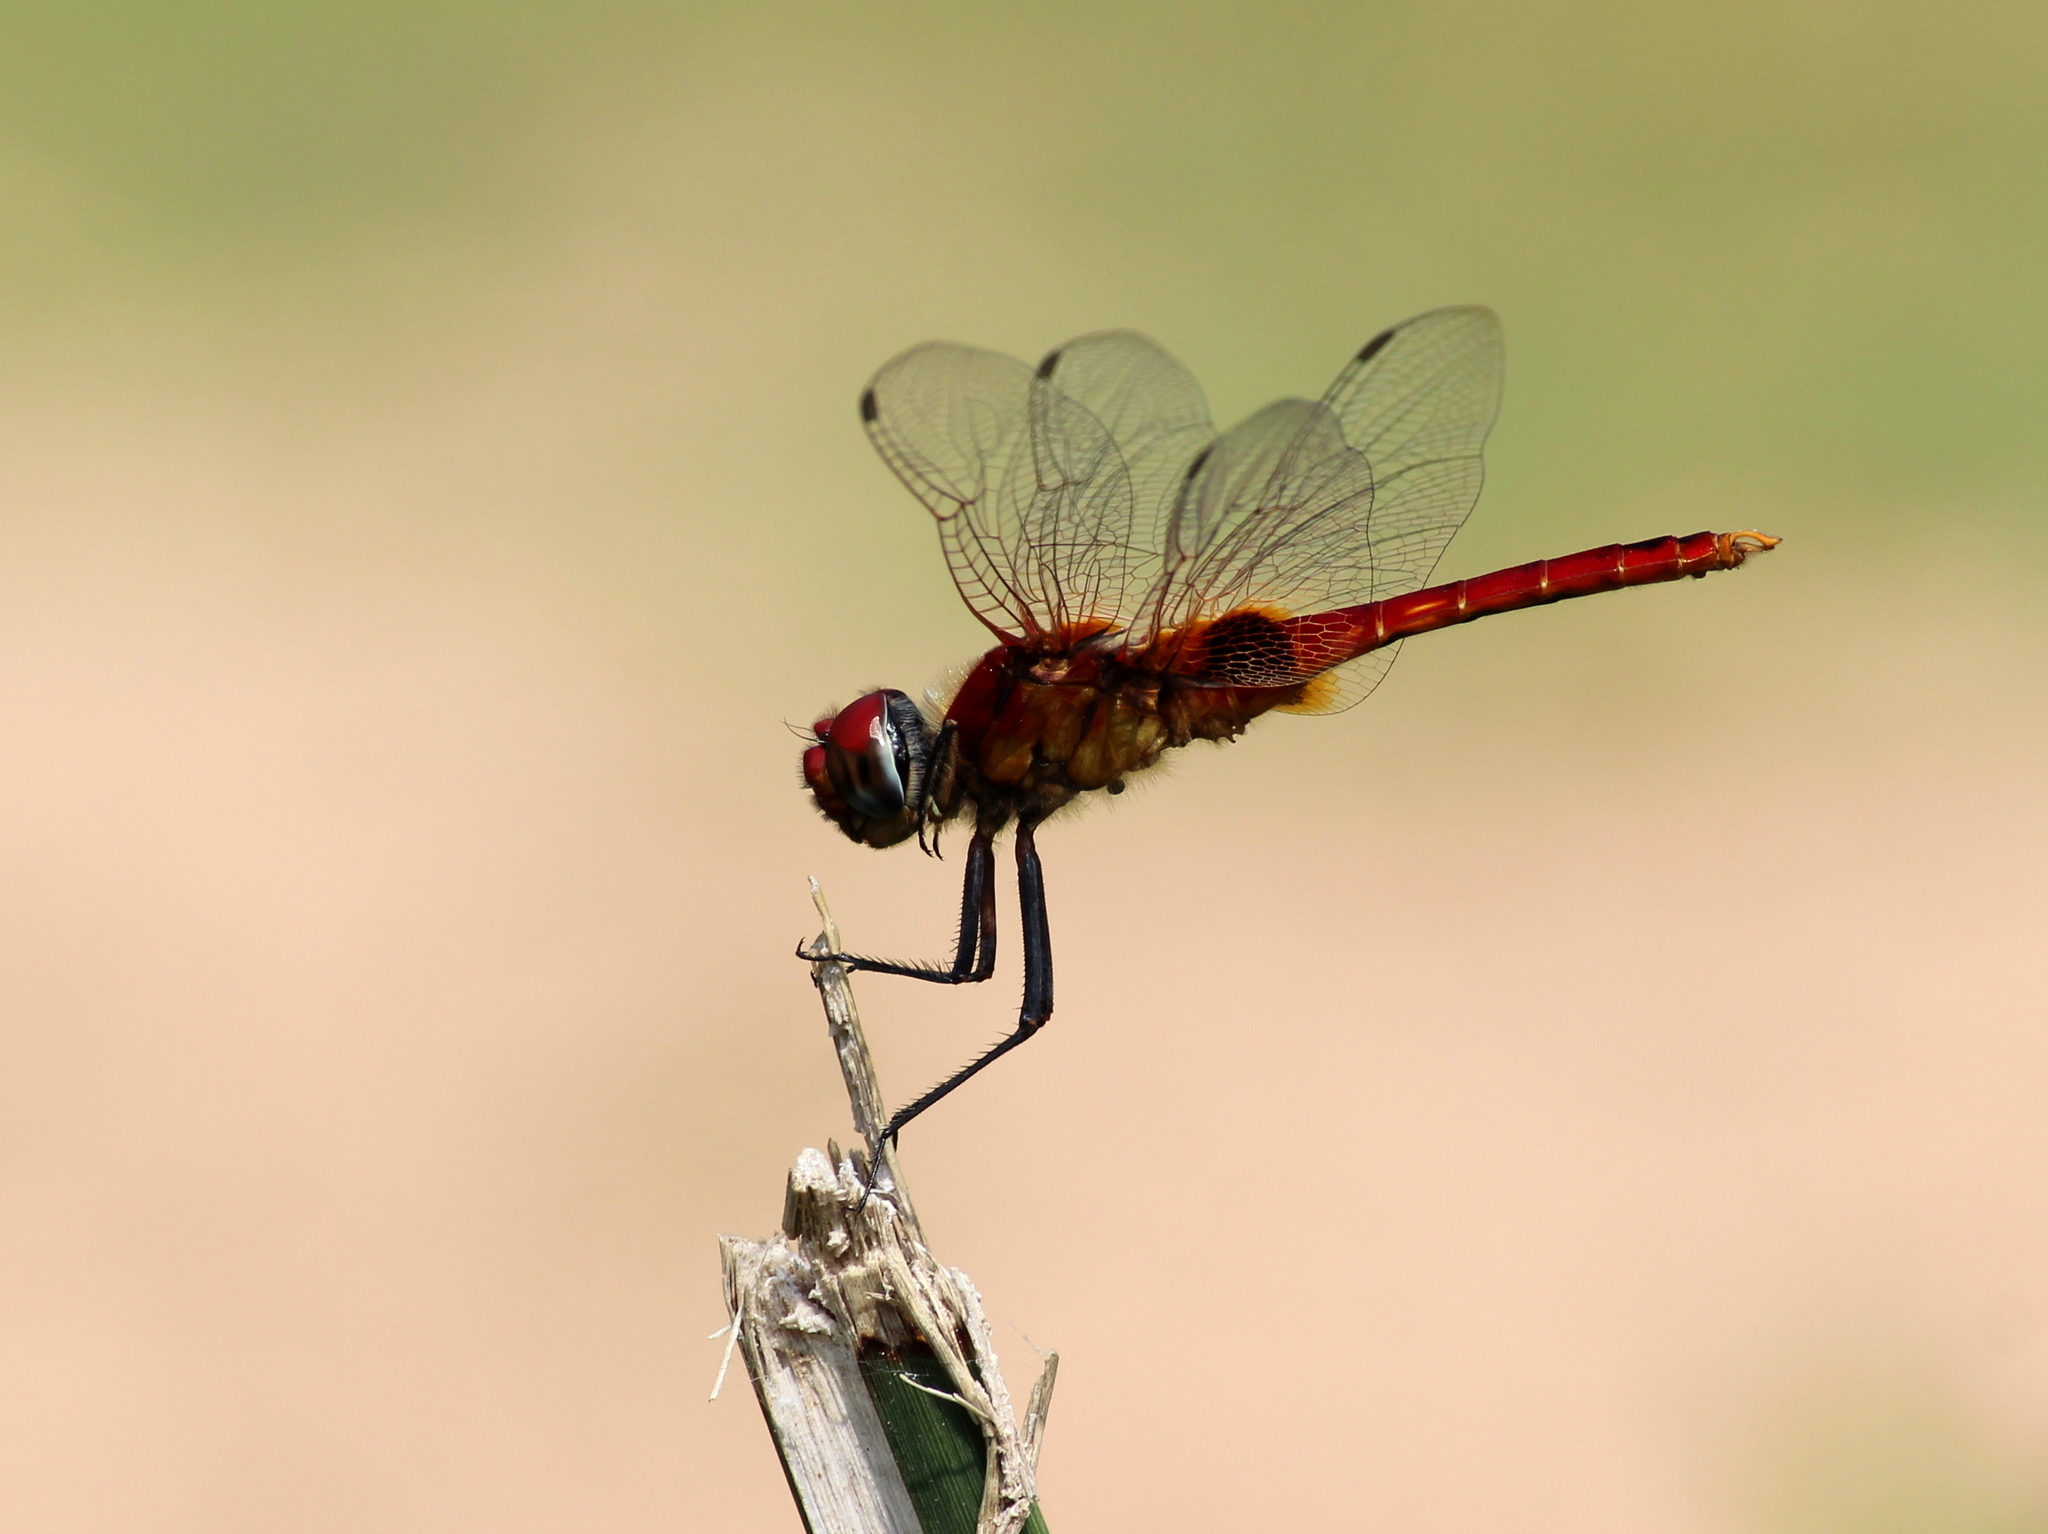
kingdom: Animalia
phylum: Arthropoda
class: Insecta
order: Odonata
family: Libellulidae
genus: Urothemis
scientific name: Urothemis signata
